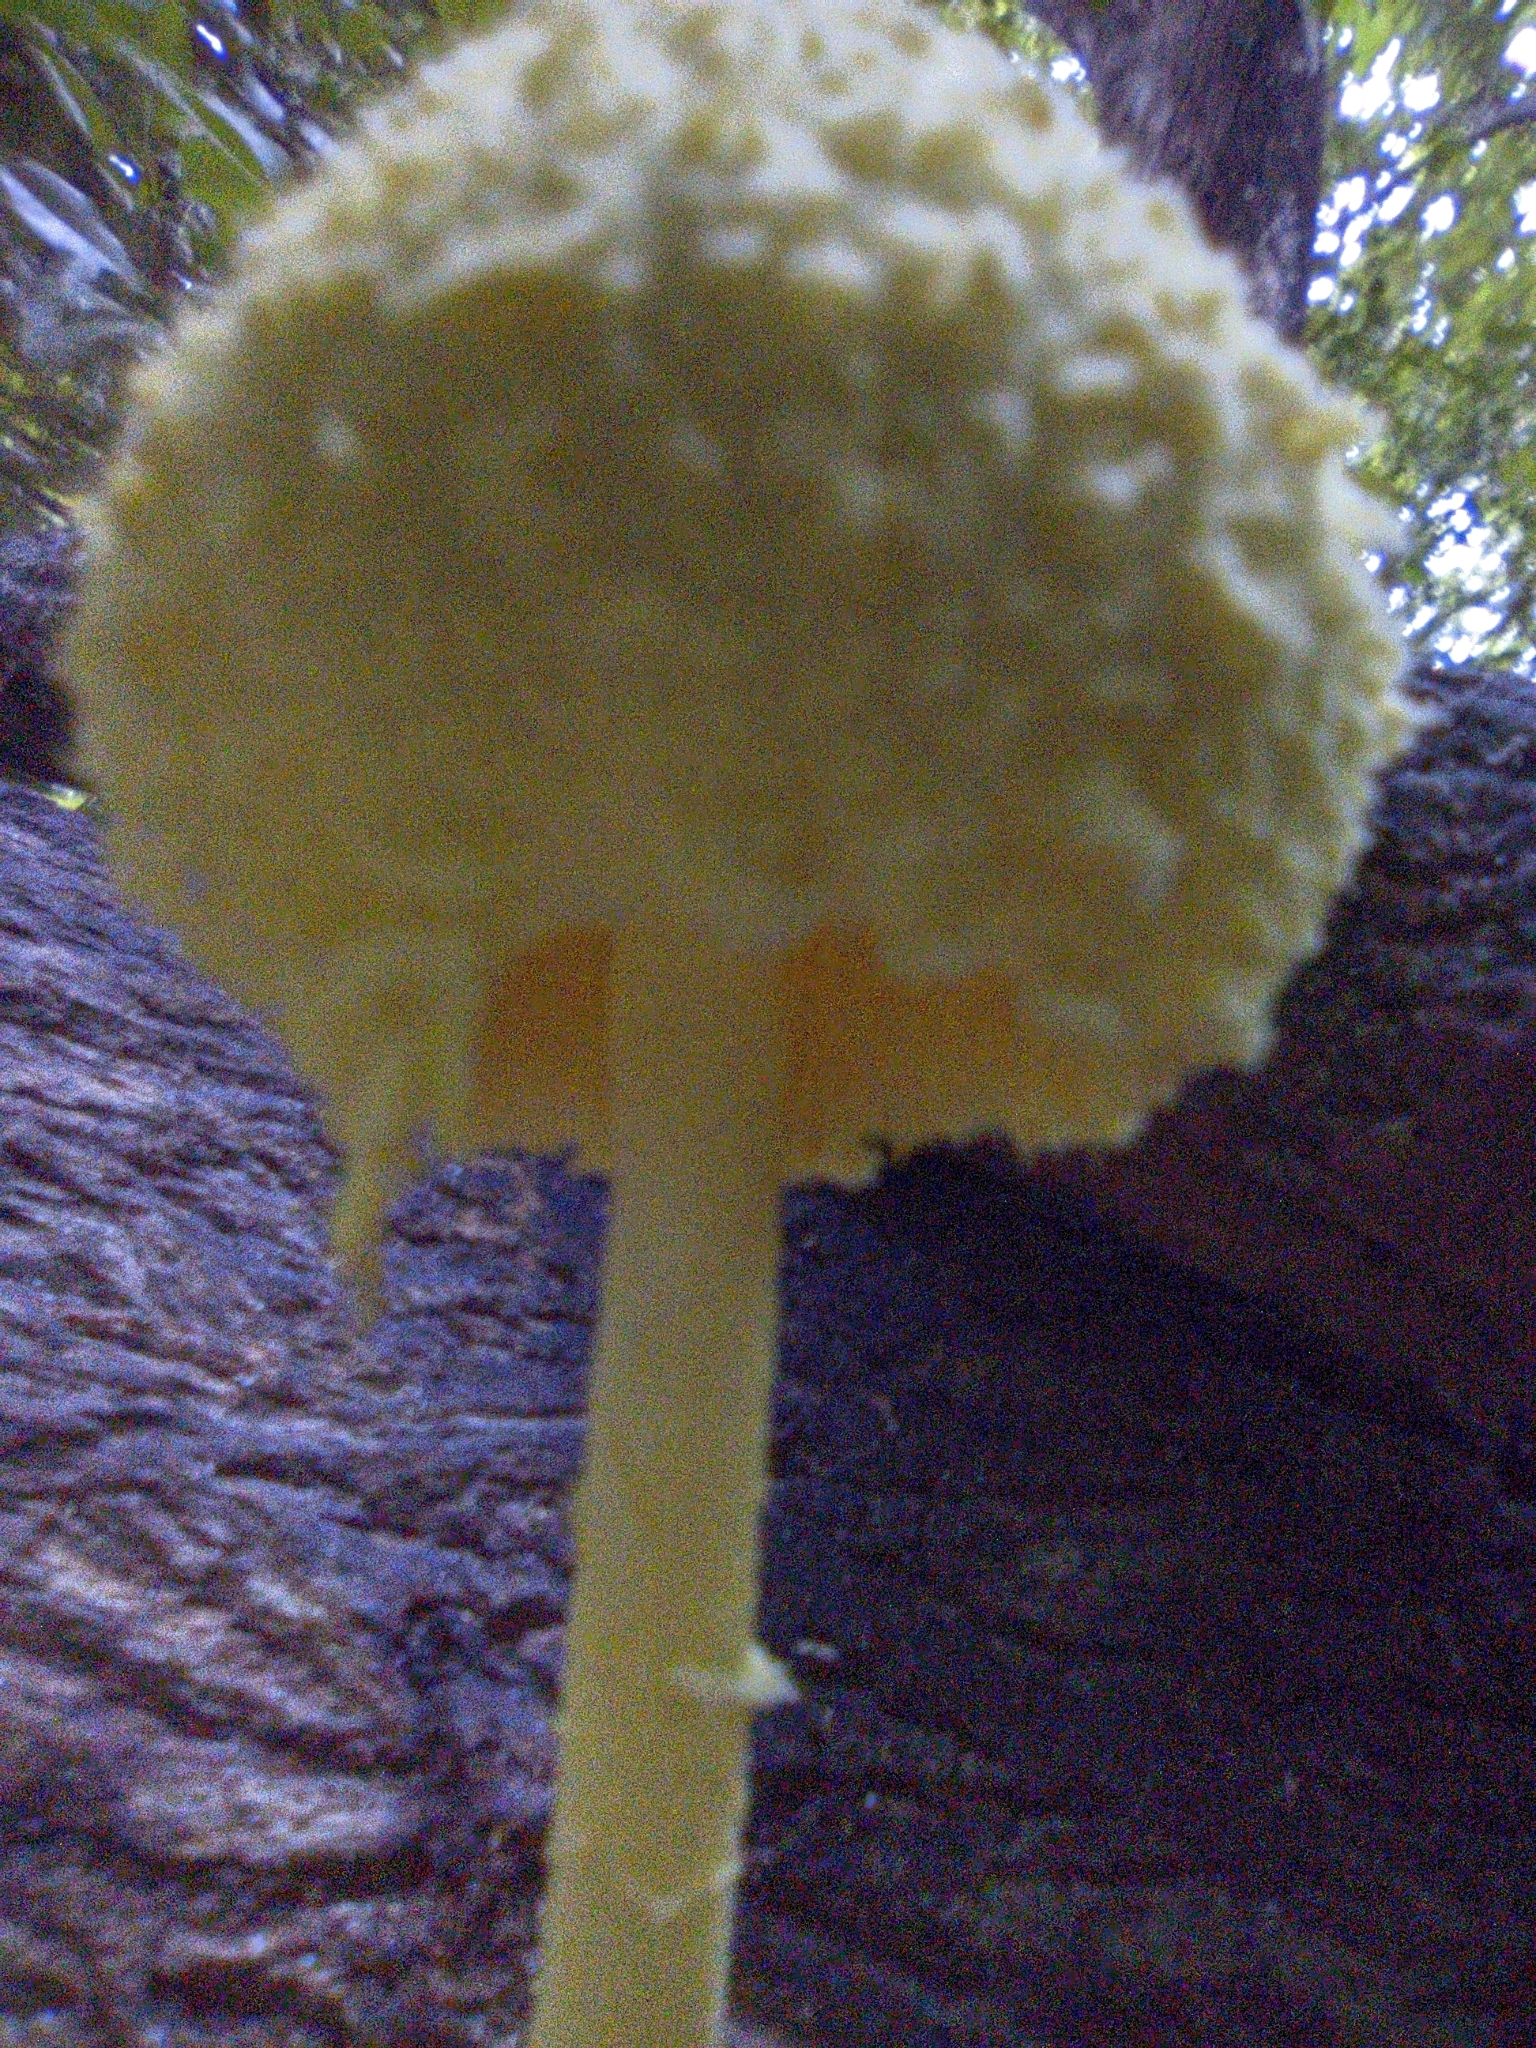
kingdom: Fungi
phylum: Basidiomycota
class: Agaricomycetes
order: Agaricales
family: Agaricaceae
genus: Leucocoprinus
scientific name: Leucocoprinus birnbaumii
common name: Plantpot dapperling
